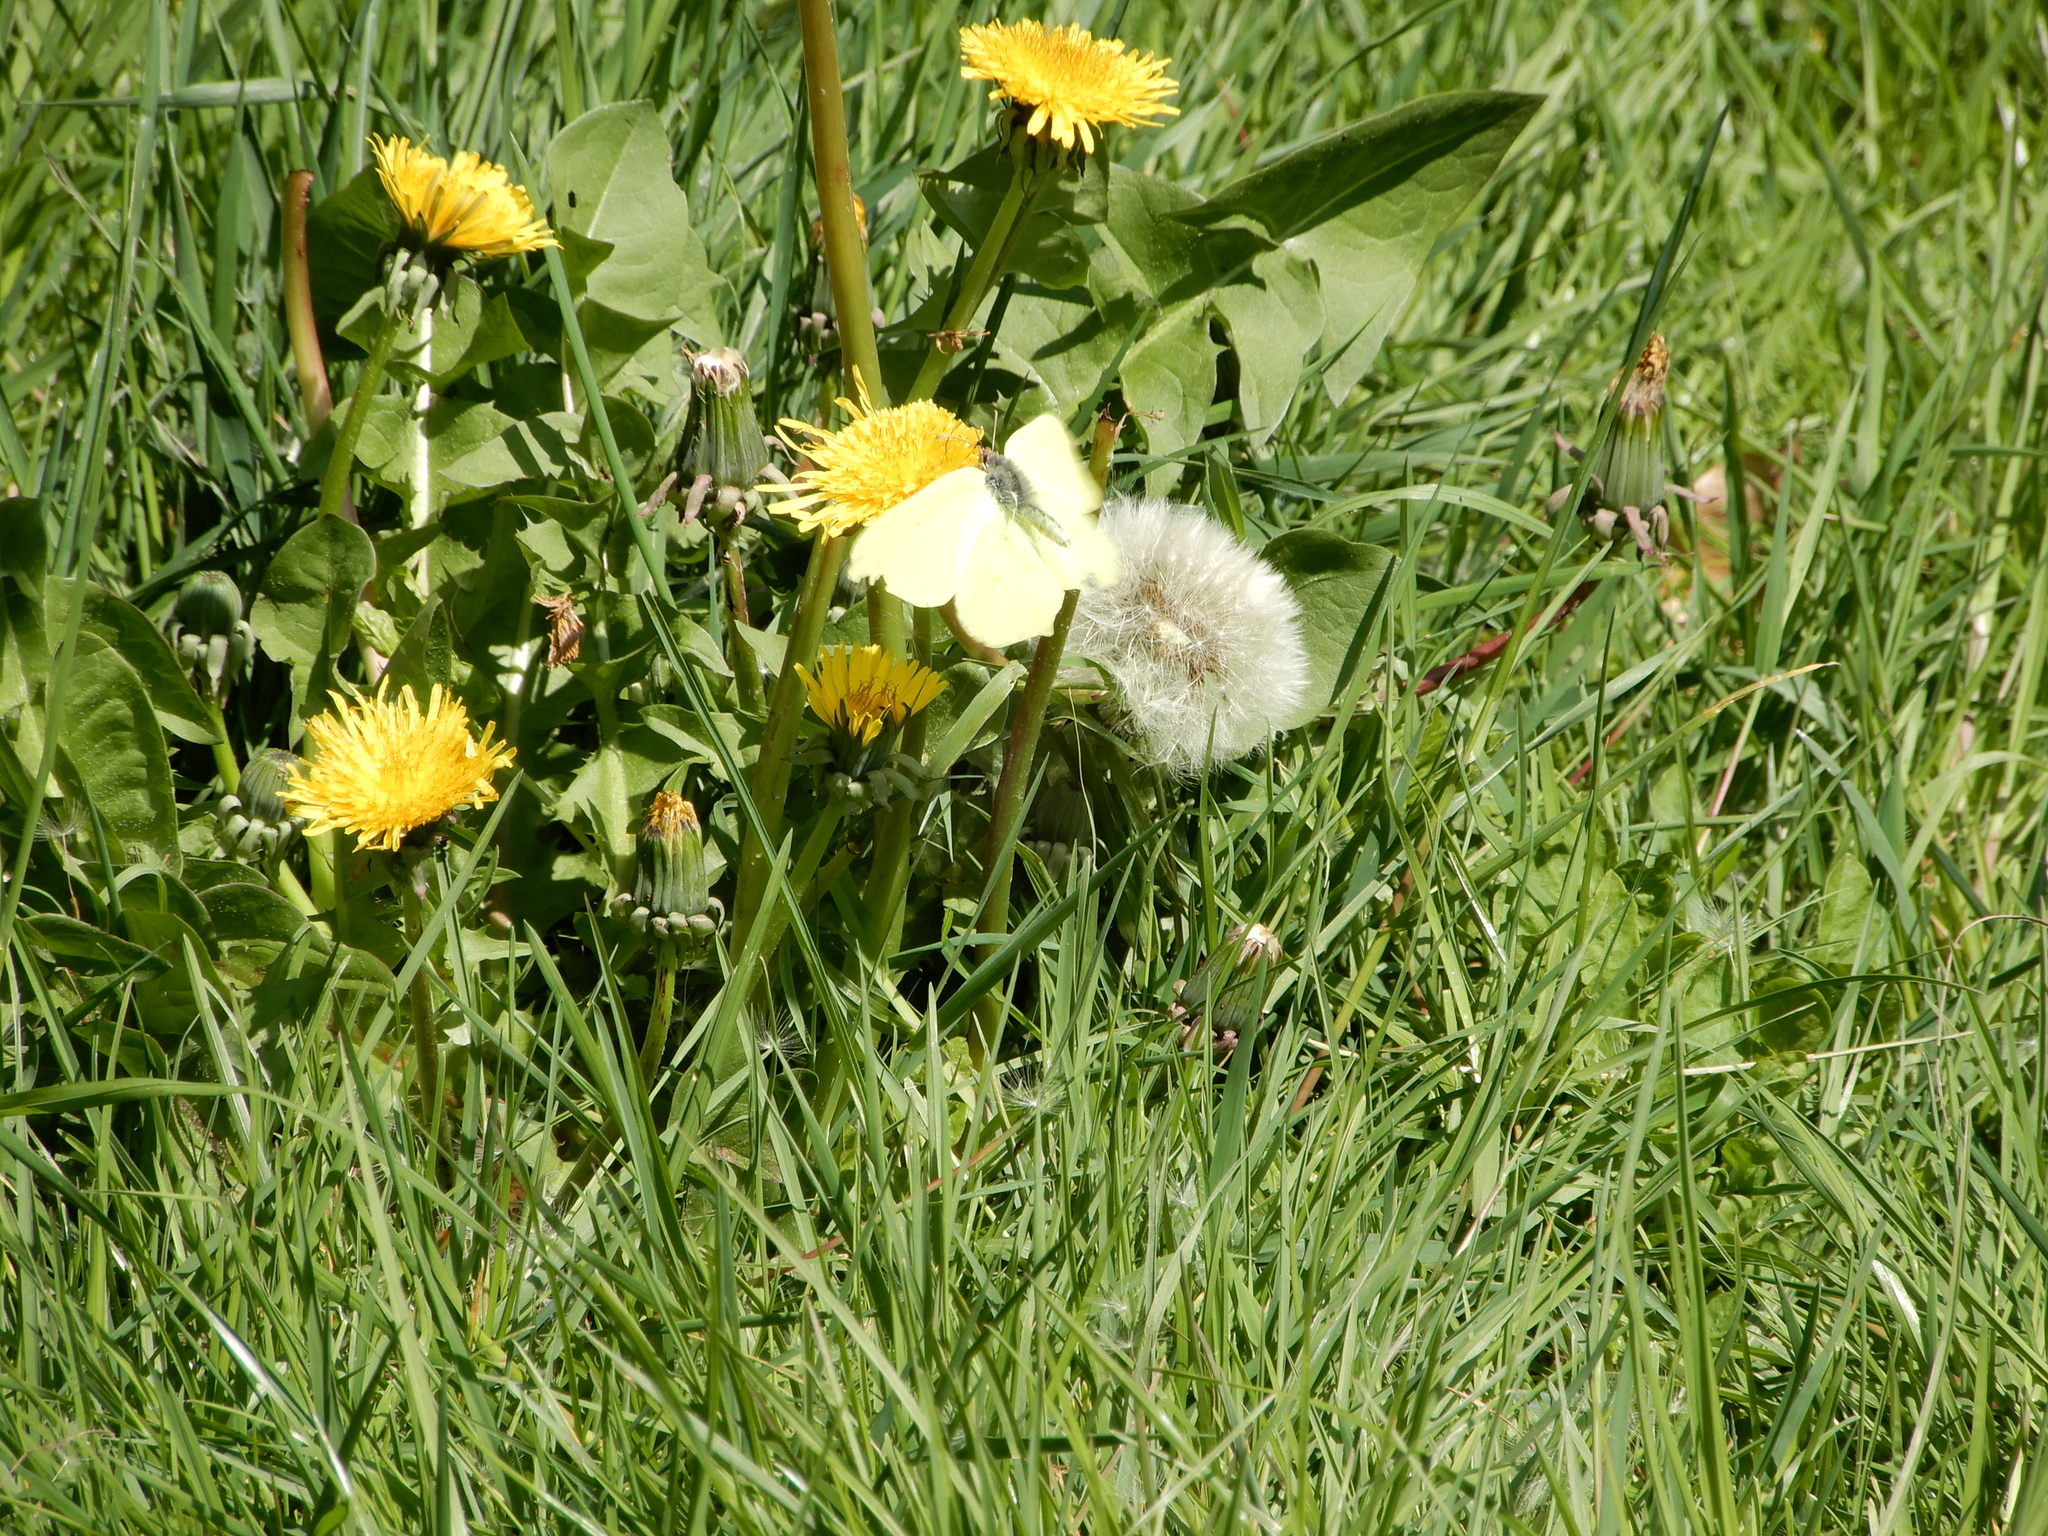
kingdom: Animalia
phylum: Arthropoda
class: Insecta
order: Lepidoptera
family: Pieridae
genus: Gonepteryx
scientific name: Gonepteryx rhamni
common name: Brimstone
